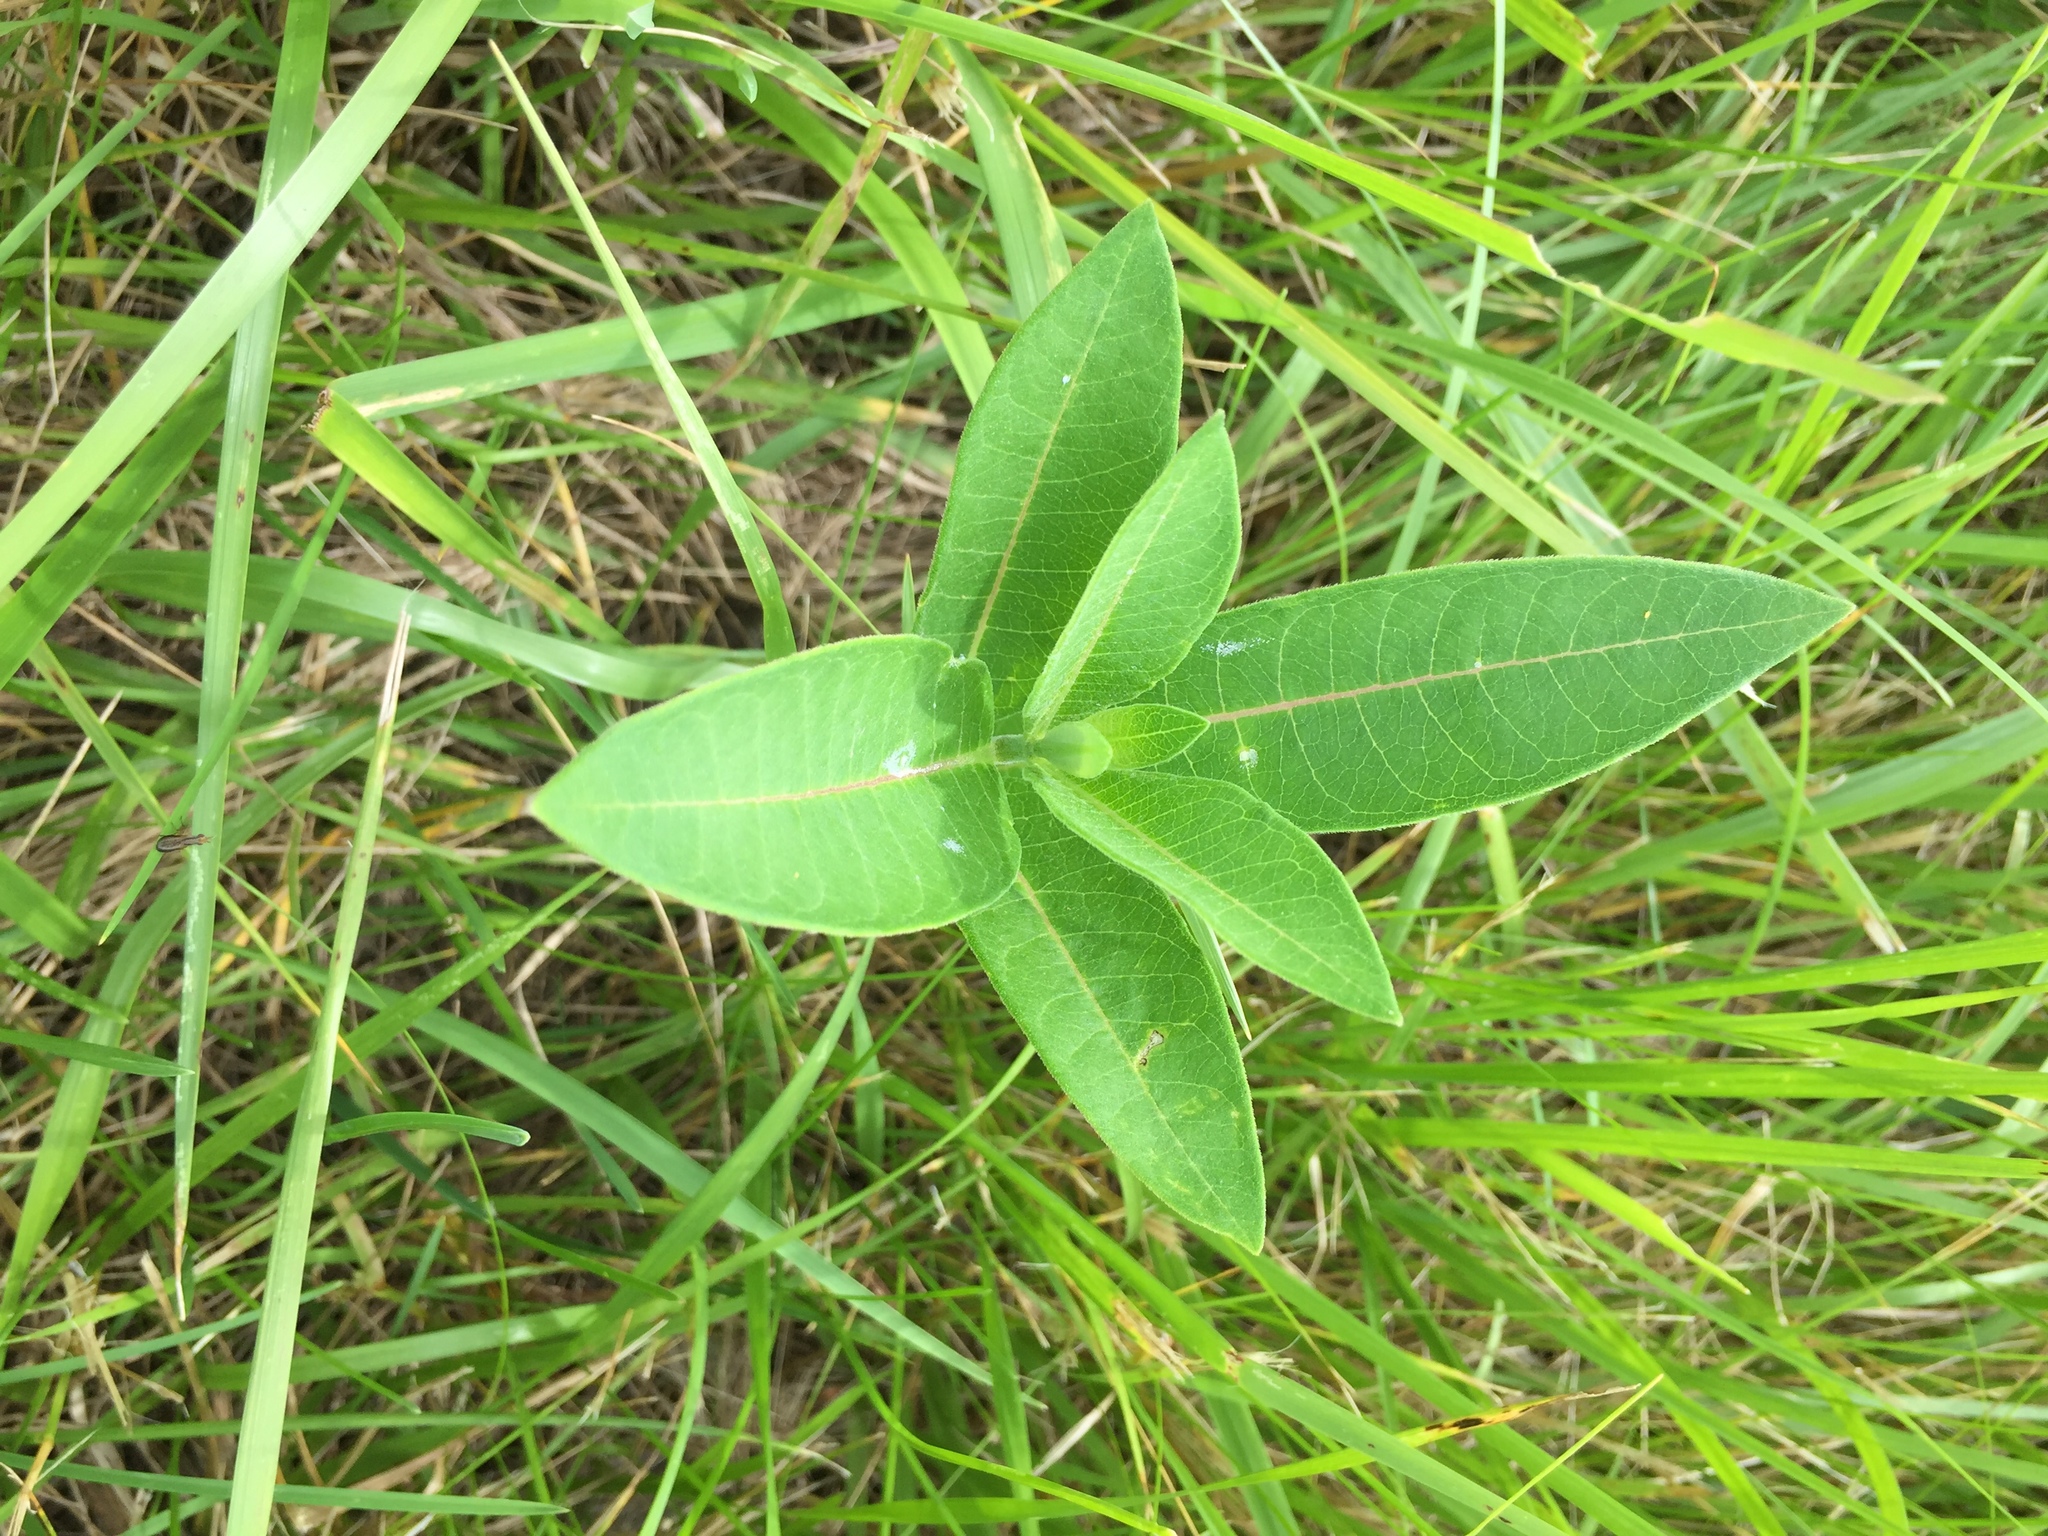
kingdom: Plantae
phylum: Tracheophyta
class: Magnoliopsida
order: Gentianales
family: Apocynaceae
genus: Asclepias
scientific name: Asclepias syriaca
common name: Common milkweed
